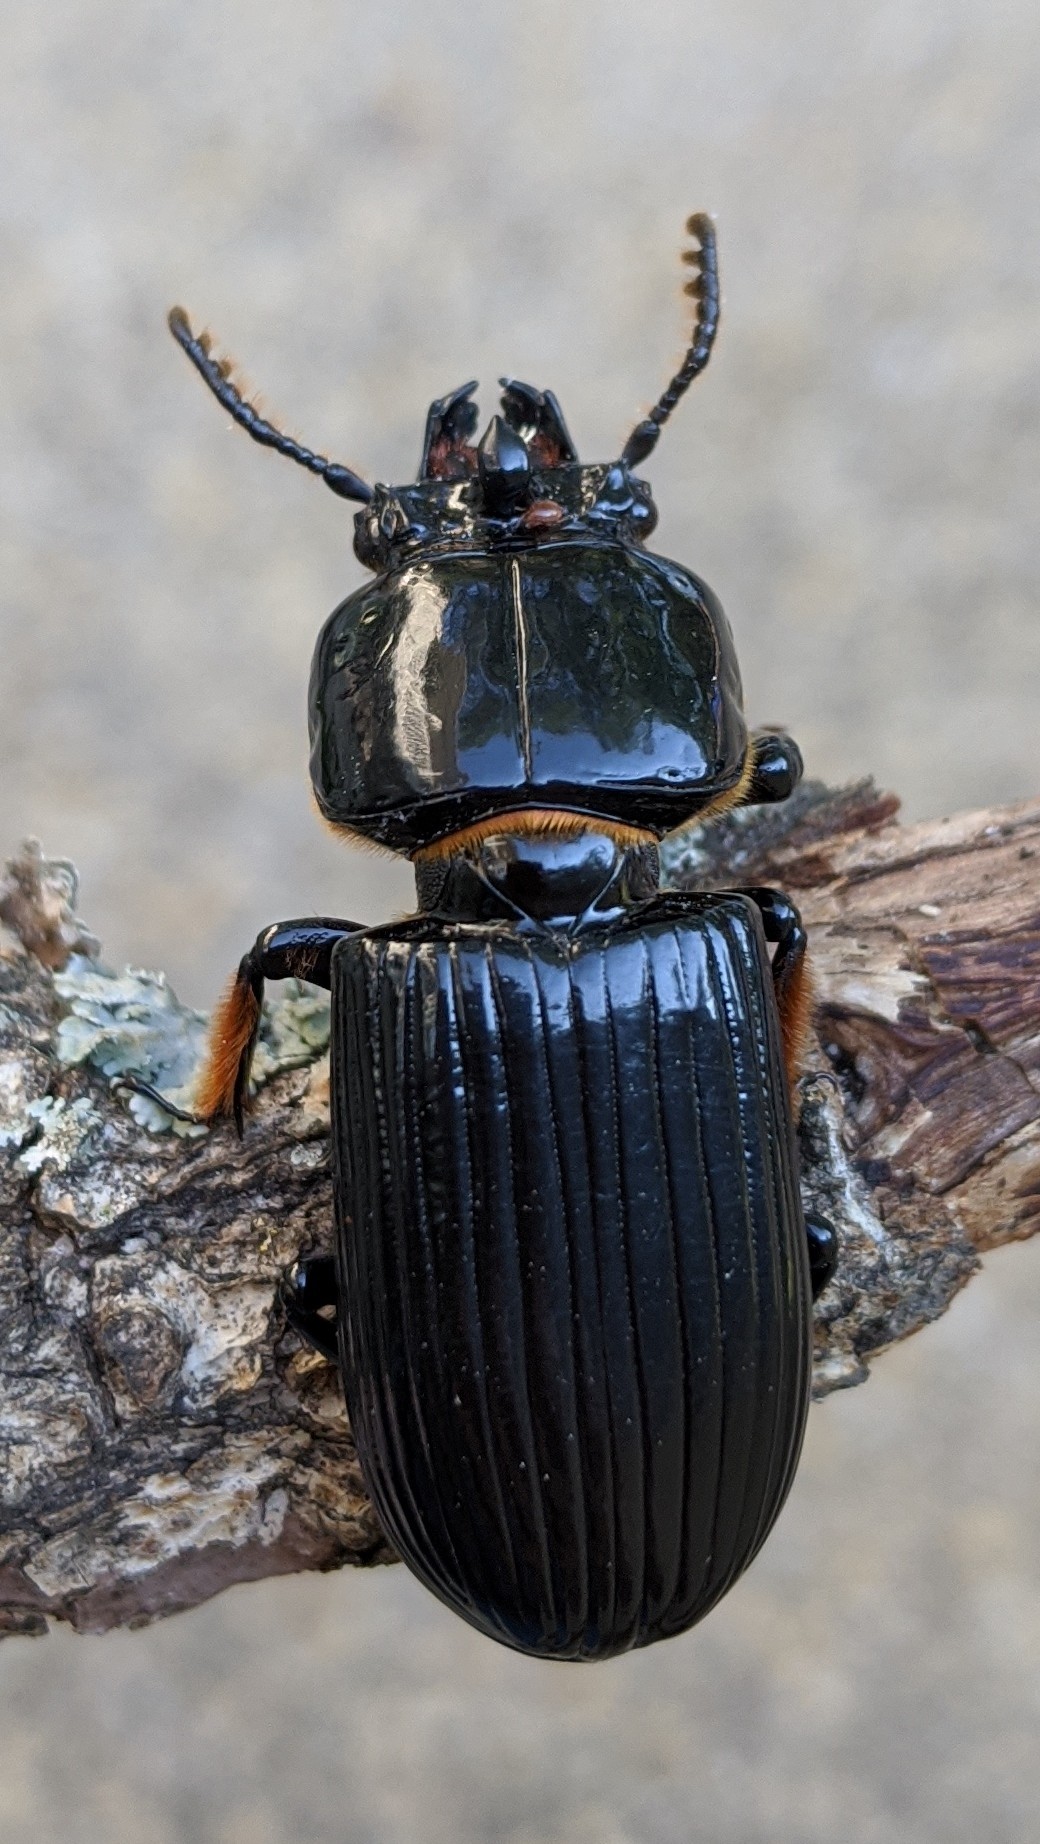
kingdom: Animalia
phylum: Arthropoda
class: Insecta
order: Coleoptera
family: Passalidae
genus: Odontotaenius
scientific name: Odontotaenius disjunctus
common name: Patent leather beetle
